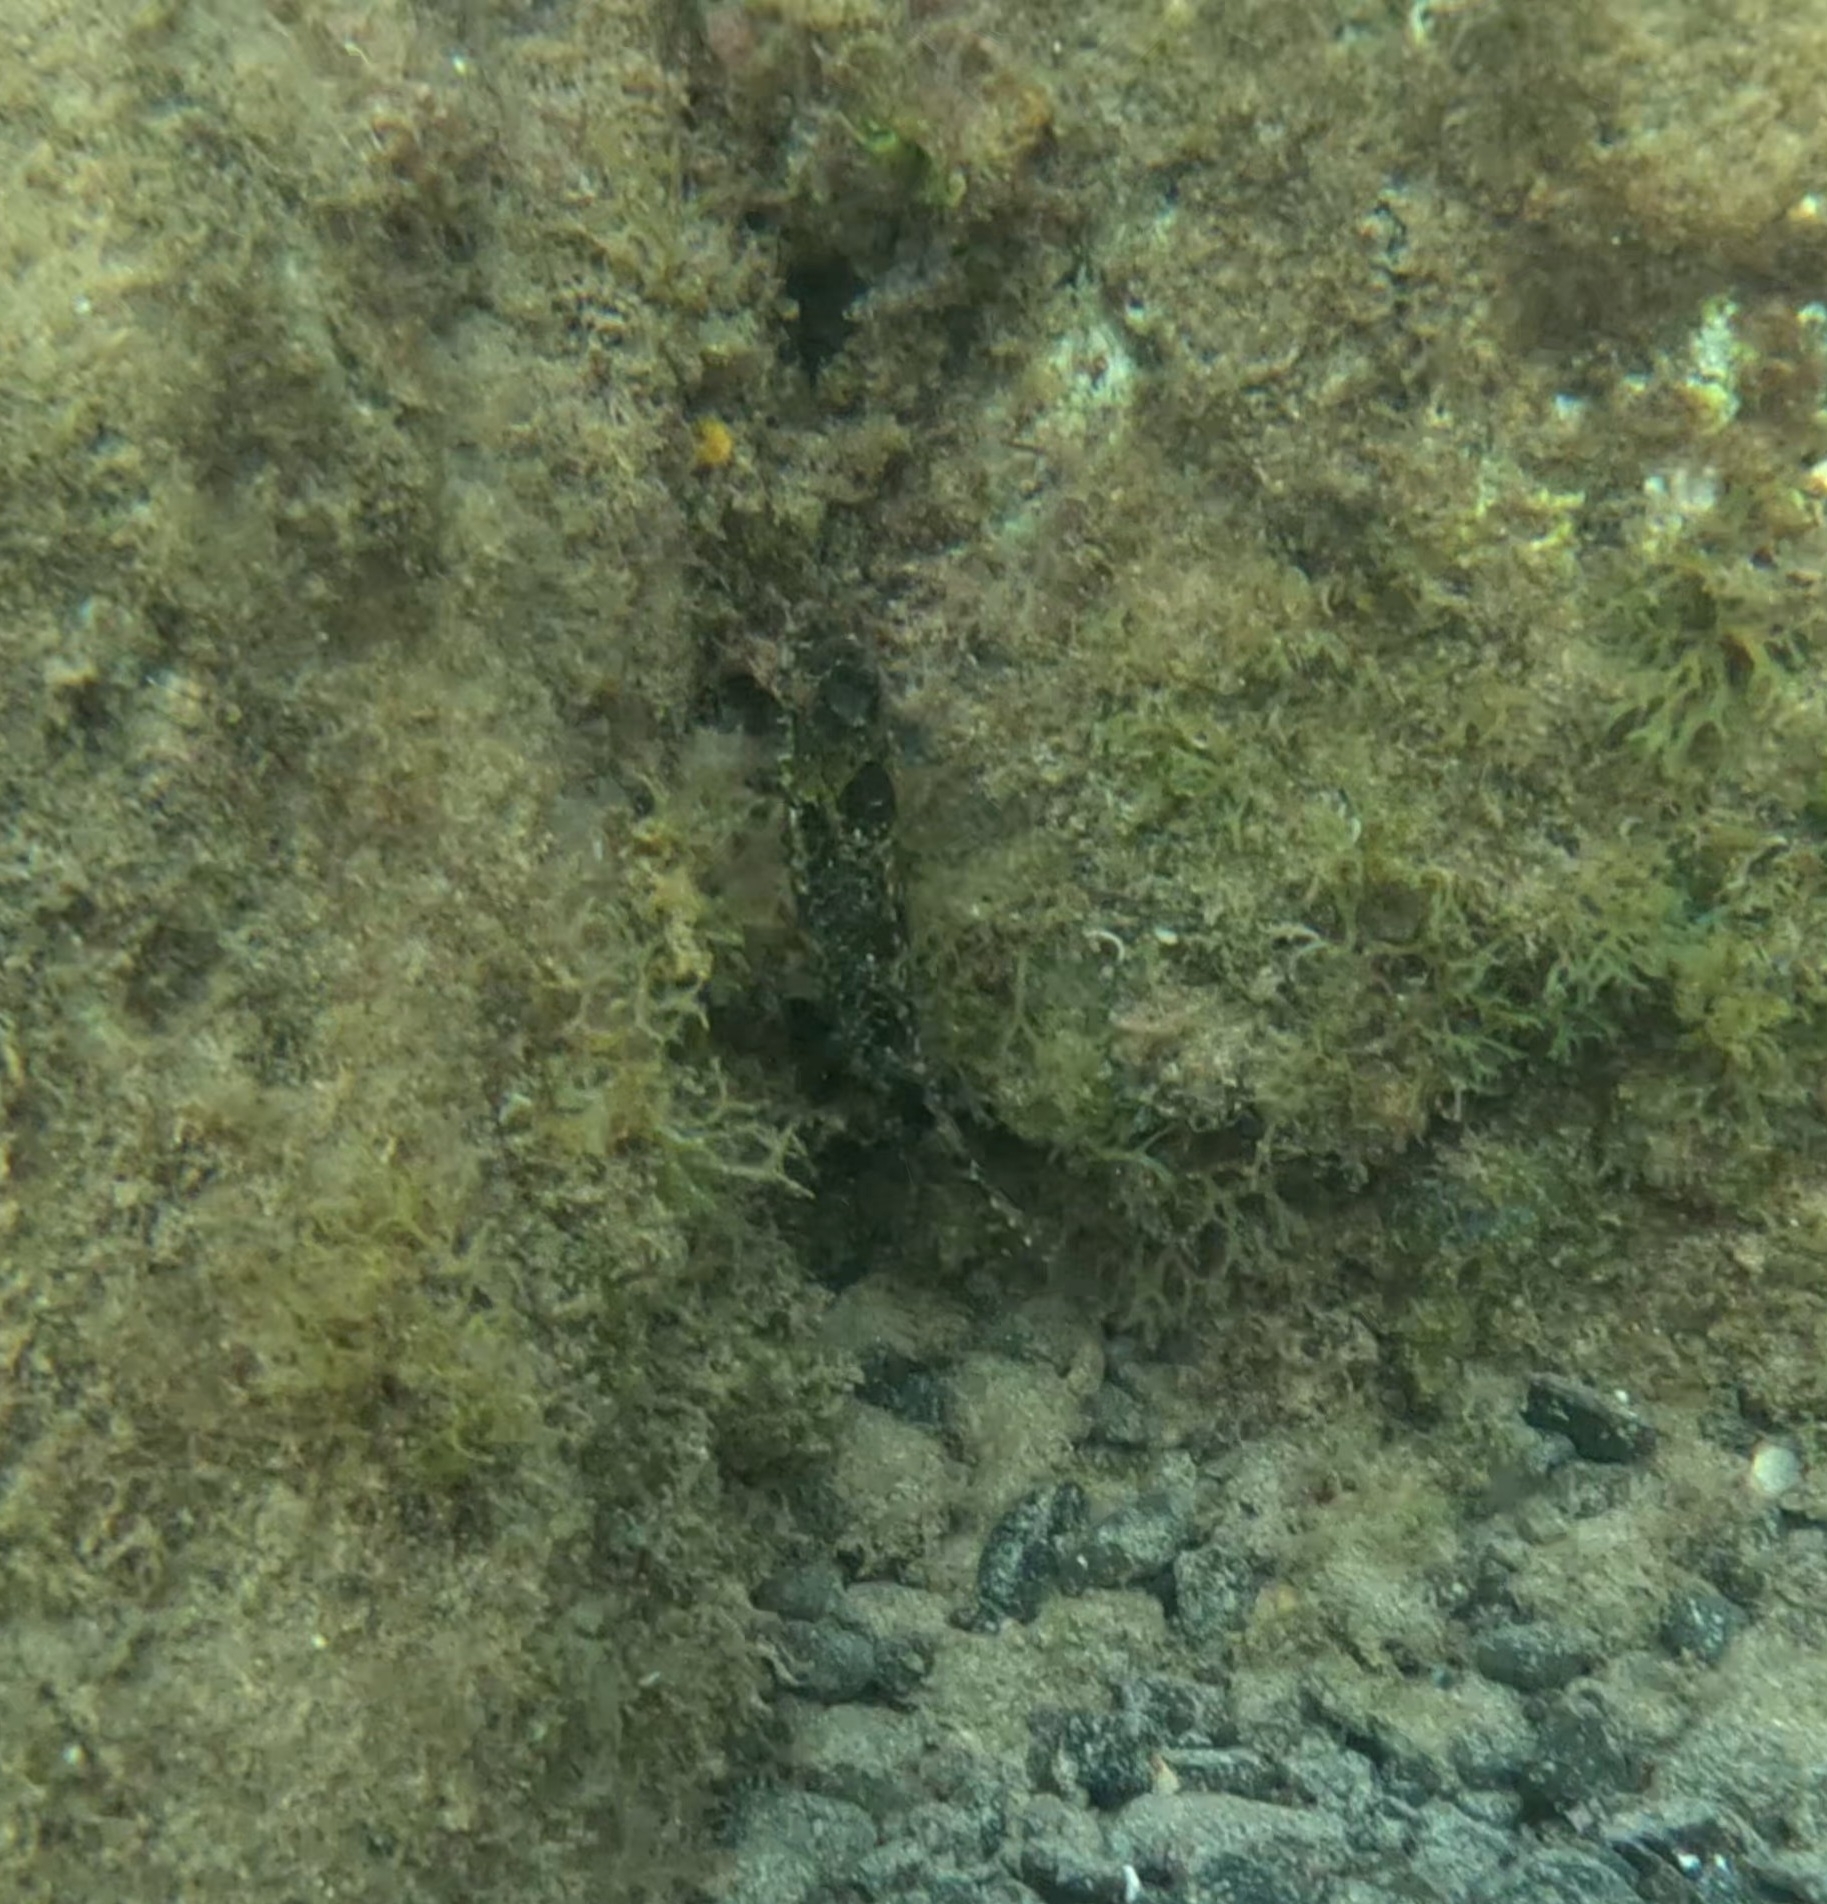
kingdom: Animalia
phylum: Chordata
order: Perciformes
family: Scaridae
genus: Sparisoma
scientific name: Sparisoma cretense
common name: Parrotfish
